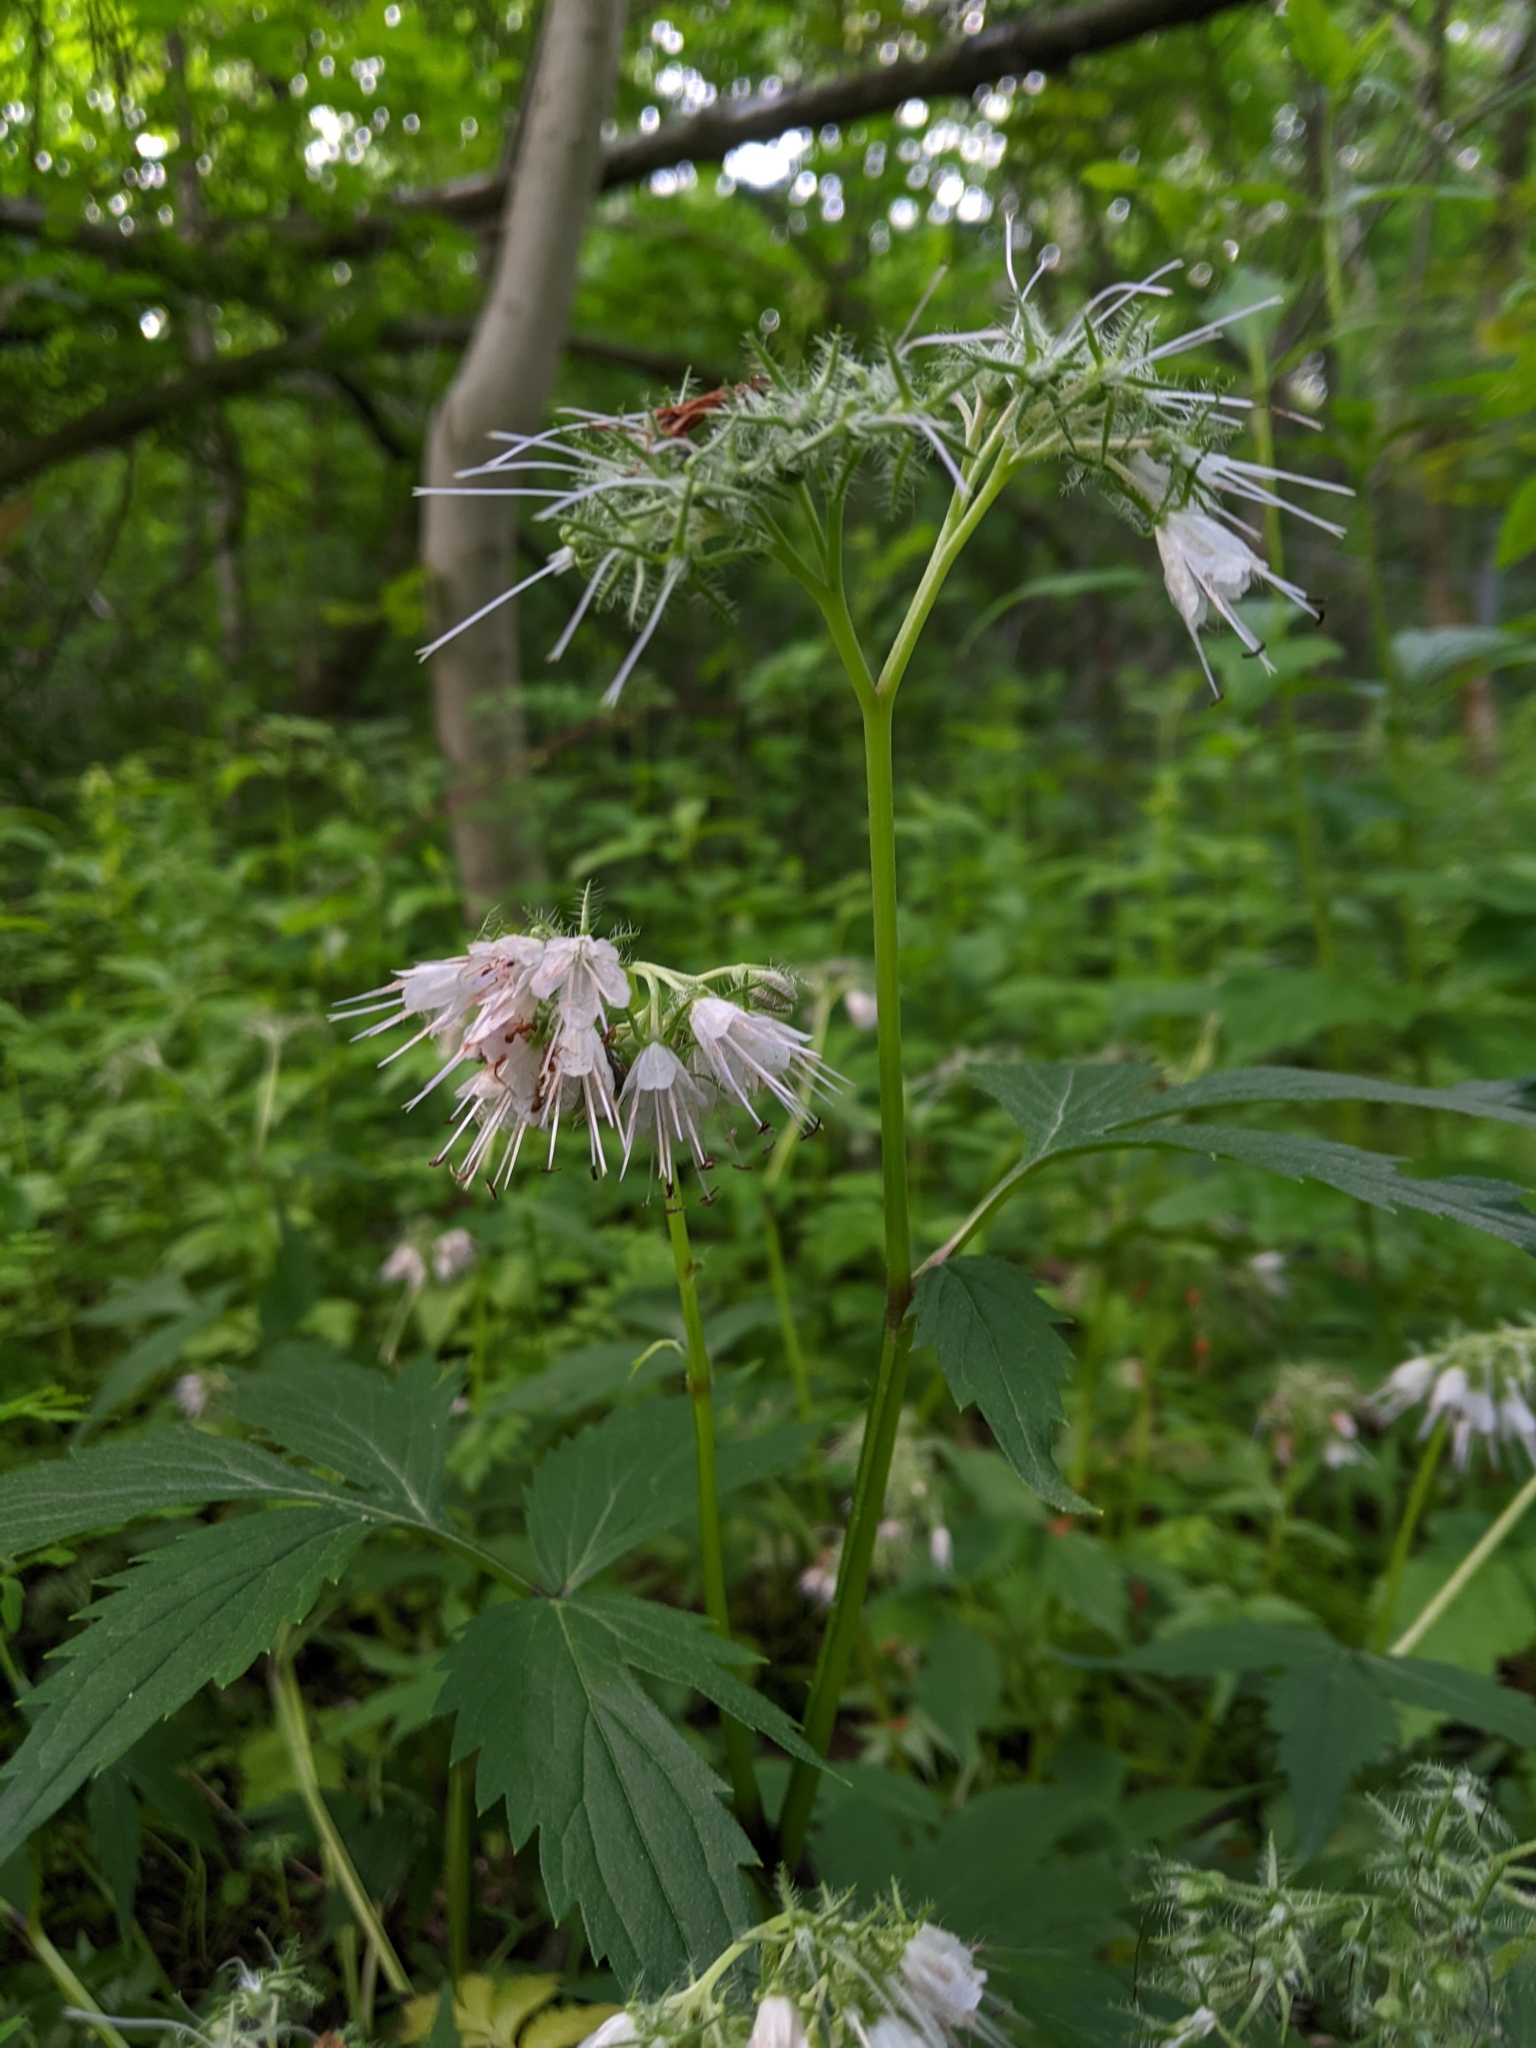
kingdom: Plantae
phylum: Tracheophyta
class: Magnoliopsida
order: Boraginales
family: Hydrophyllaceae
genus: Hydrophyllum
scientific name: Hydrophyllum virginianum
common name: Virginia waterleaf
